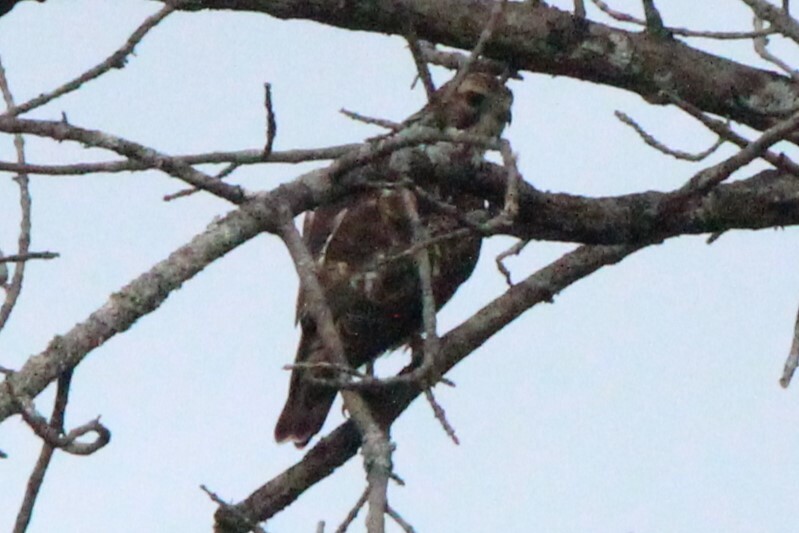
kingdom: Animalia
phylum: Chordata
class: Aves
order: Accipitriformes
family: Accipitridae
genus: Buteo
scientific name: Buteo platypterus
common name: Broad-winged hawk
